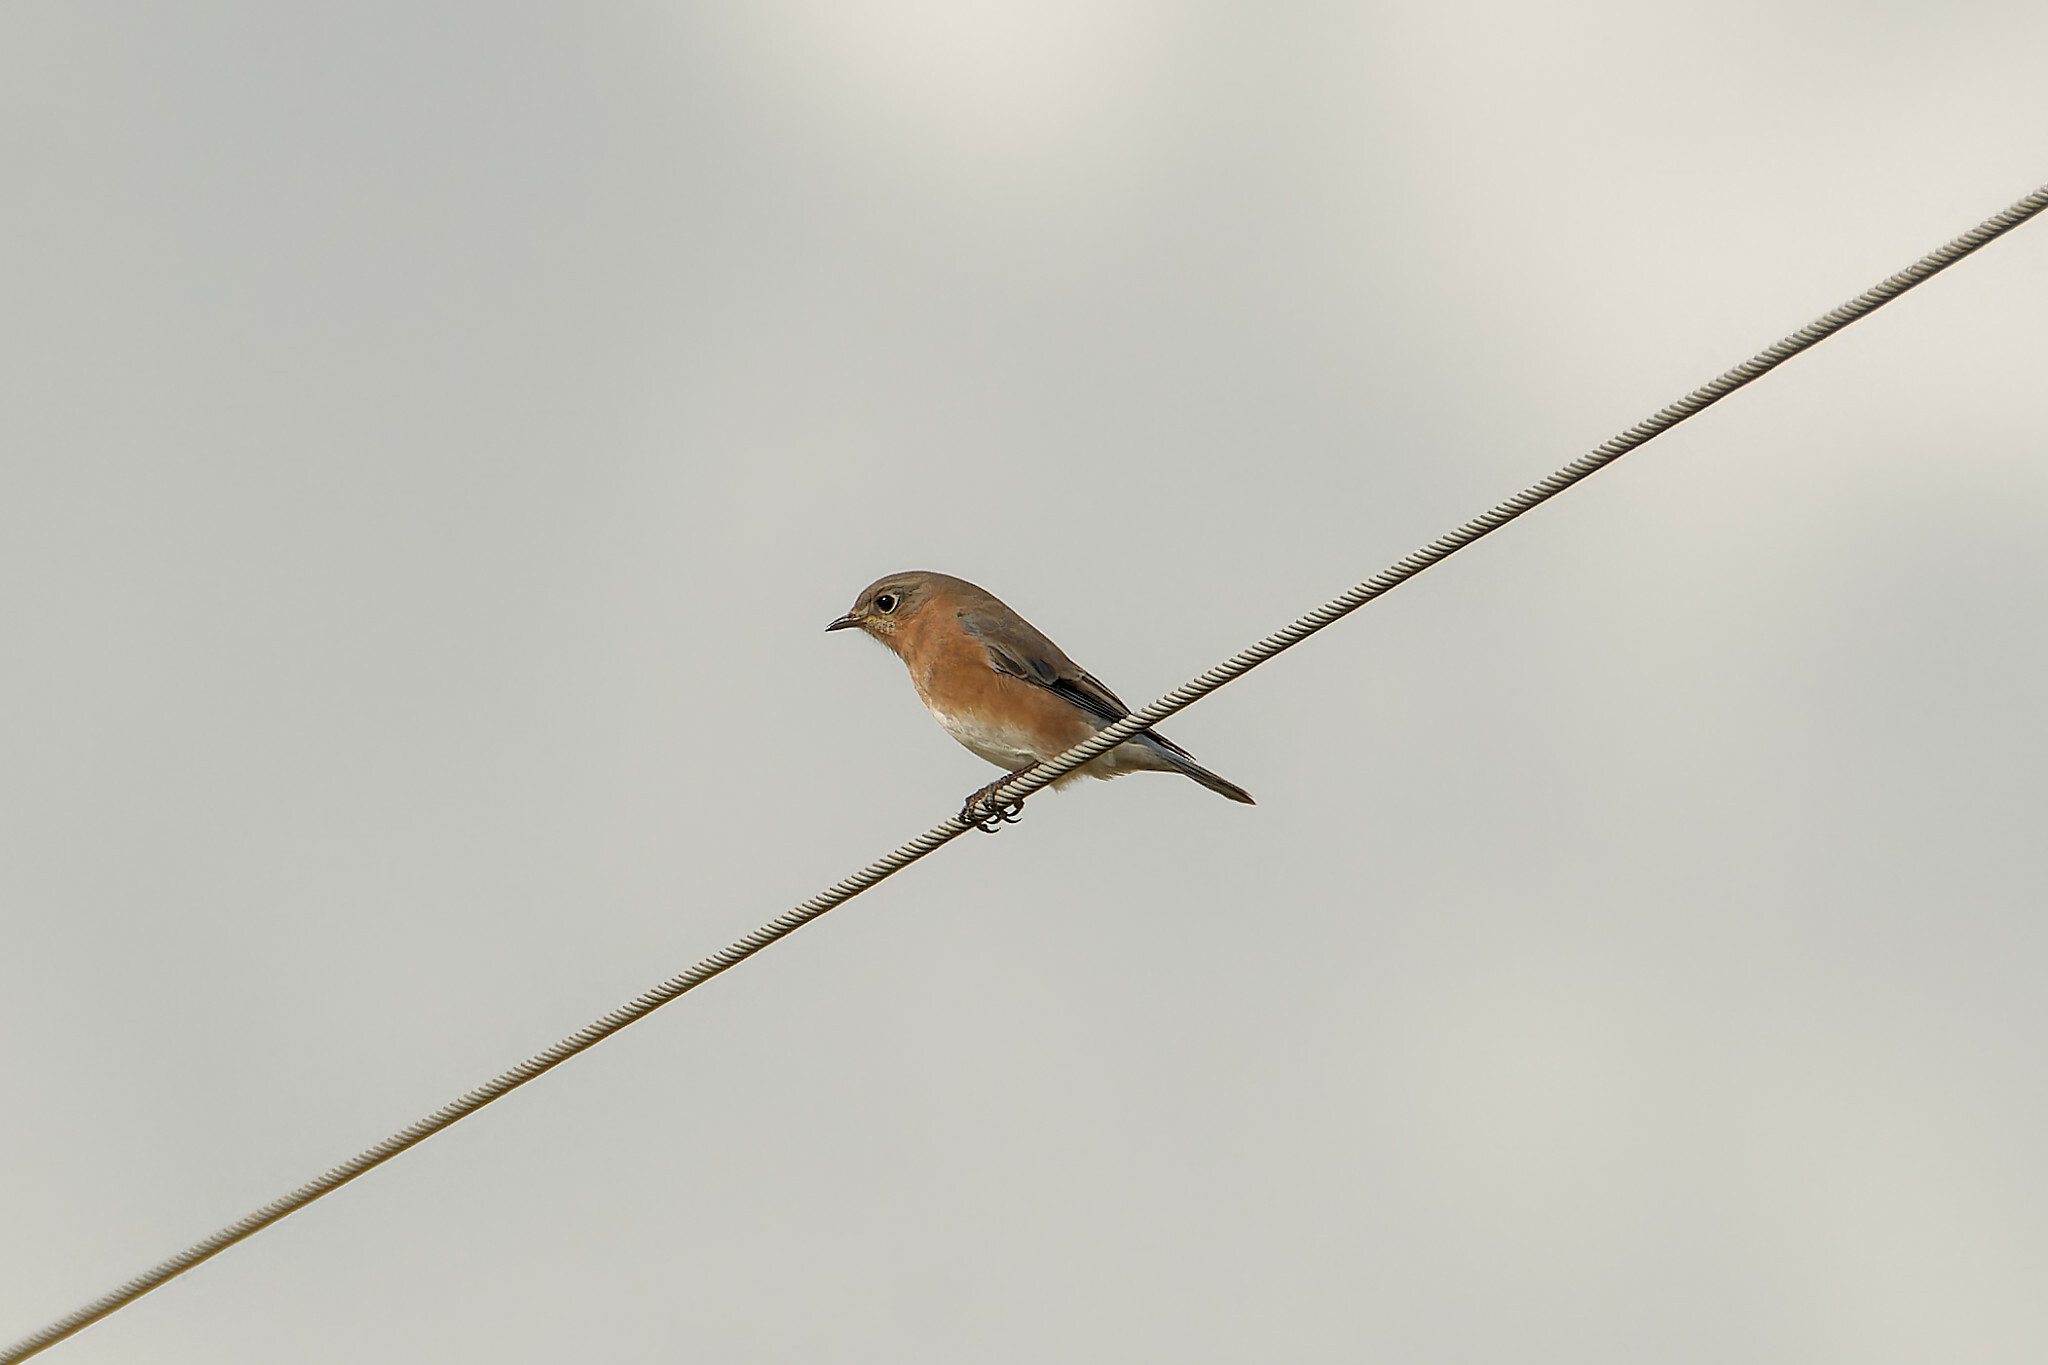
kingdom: Animalia
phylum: Chordata
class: Aves
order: Passeriformes
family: Turdidae
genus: Sialia
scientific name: Sialia sialis
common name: Eastern bluebird
